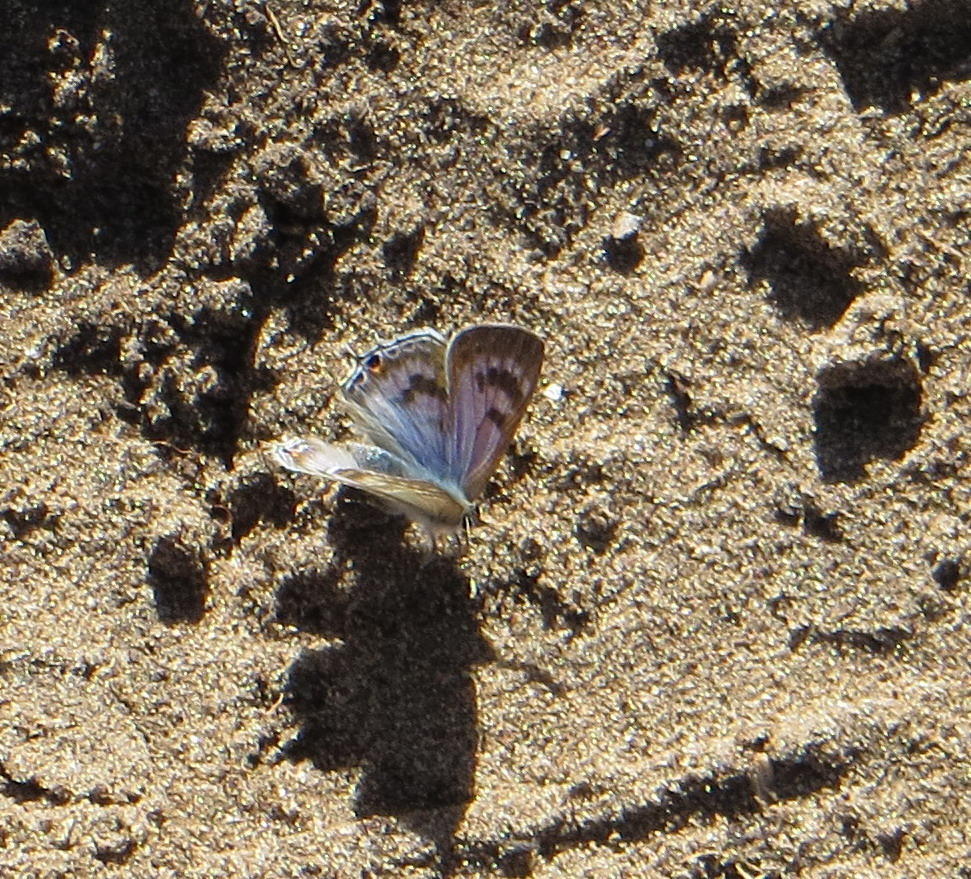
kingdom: Animalia
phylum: Arthropoda
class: Insecta
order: Lepidoptera
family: Lycaenidae
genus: Anthene
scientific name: Anthene definita
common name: Common ciliate blue
